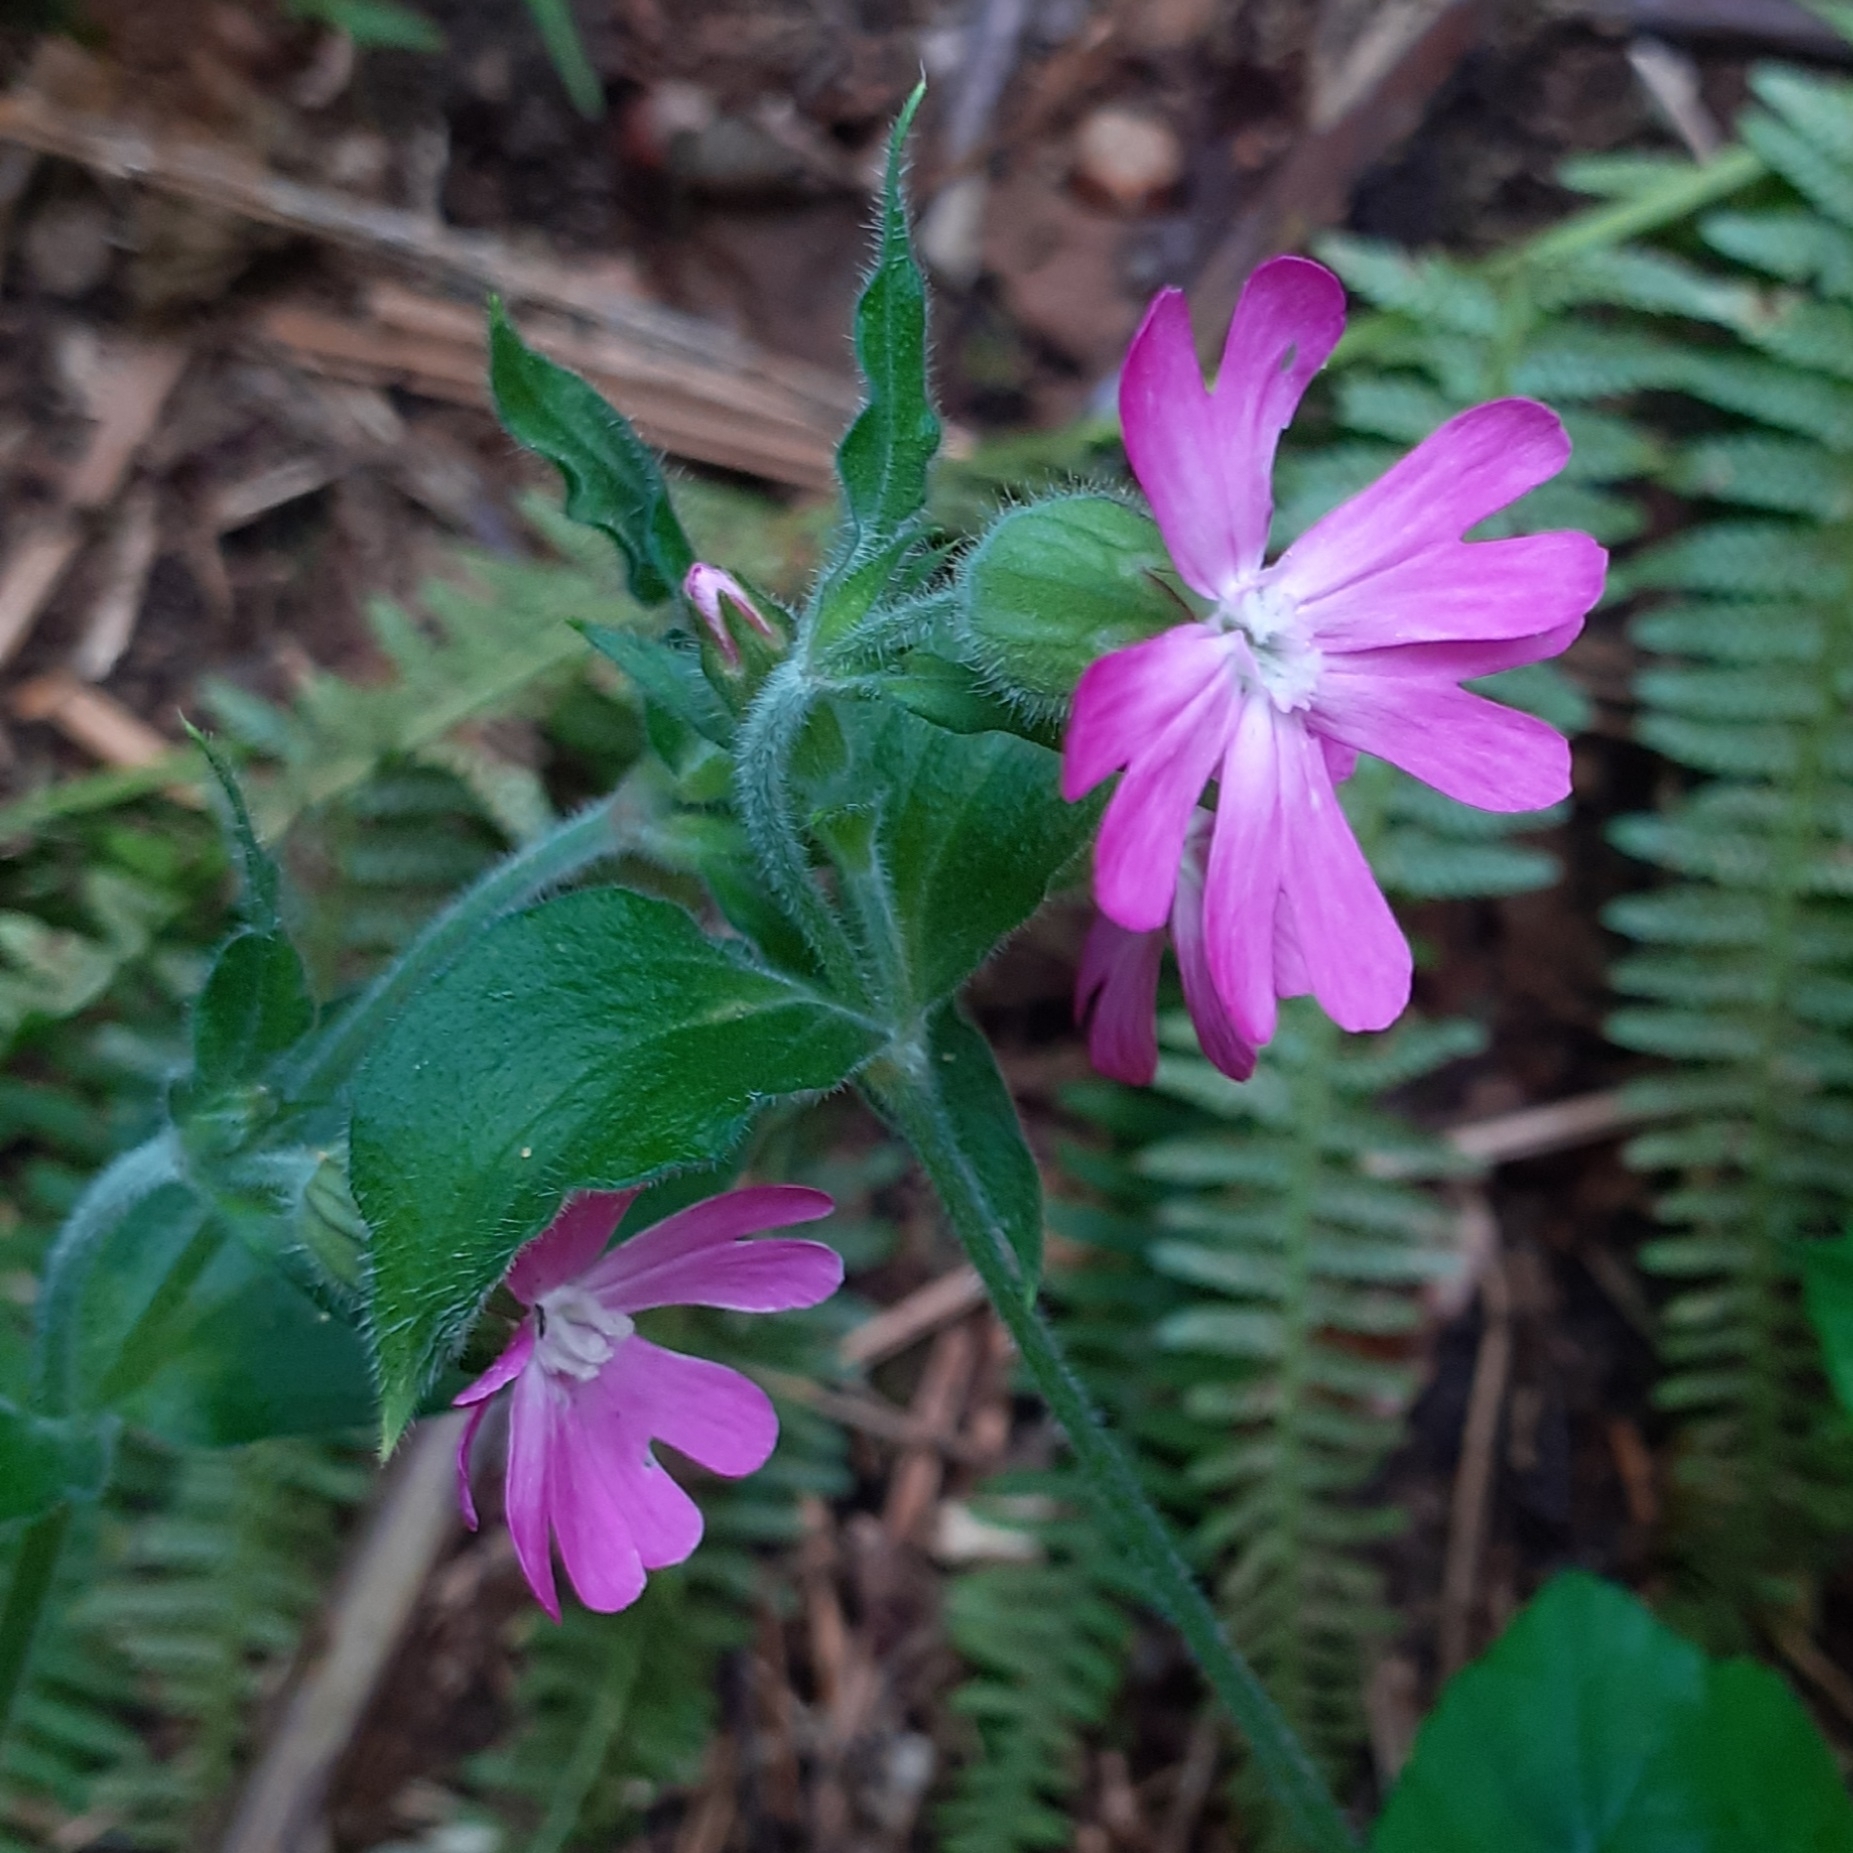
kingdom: Plantae
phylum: Tracheophyta
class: Magnoliopsida
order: Caryophyllales
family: Caryophyllaceae
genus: Silene
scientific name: Silene dioica
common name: Red campion
